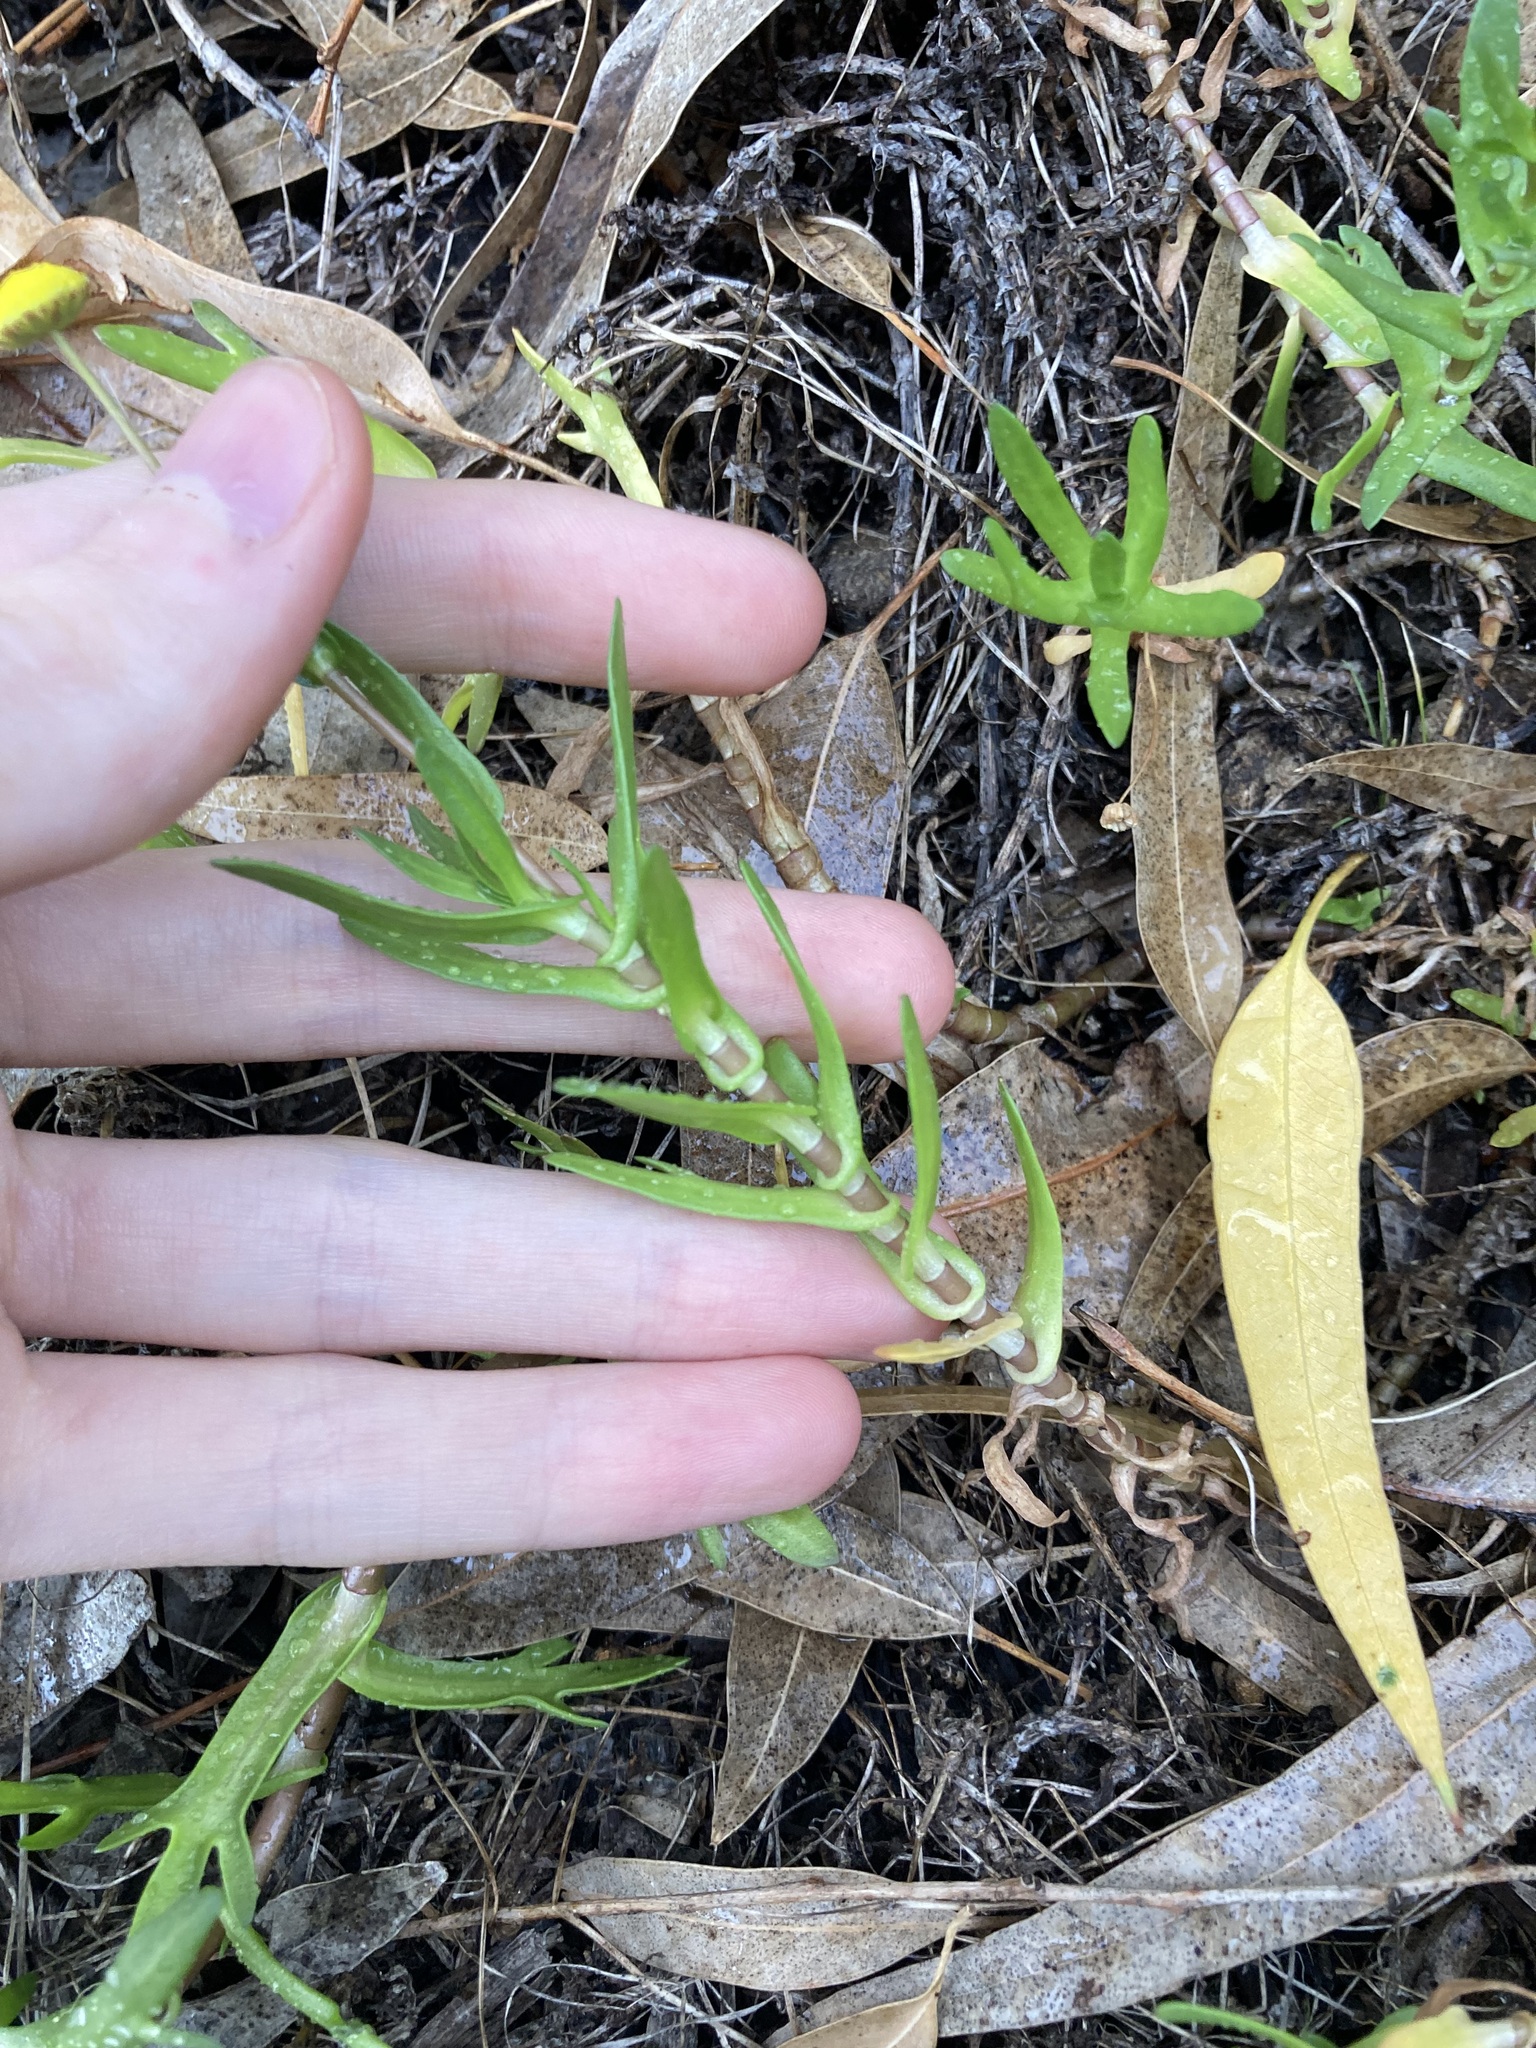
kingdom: Plantae
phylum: Tracheophyta
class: Magnoliopsida
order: Asterales
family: Asteraceae
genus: Cotula
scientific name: Cotula coronopifolia
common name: Buttonweed
